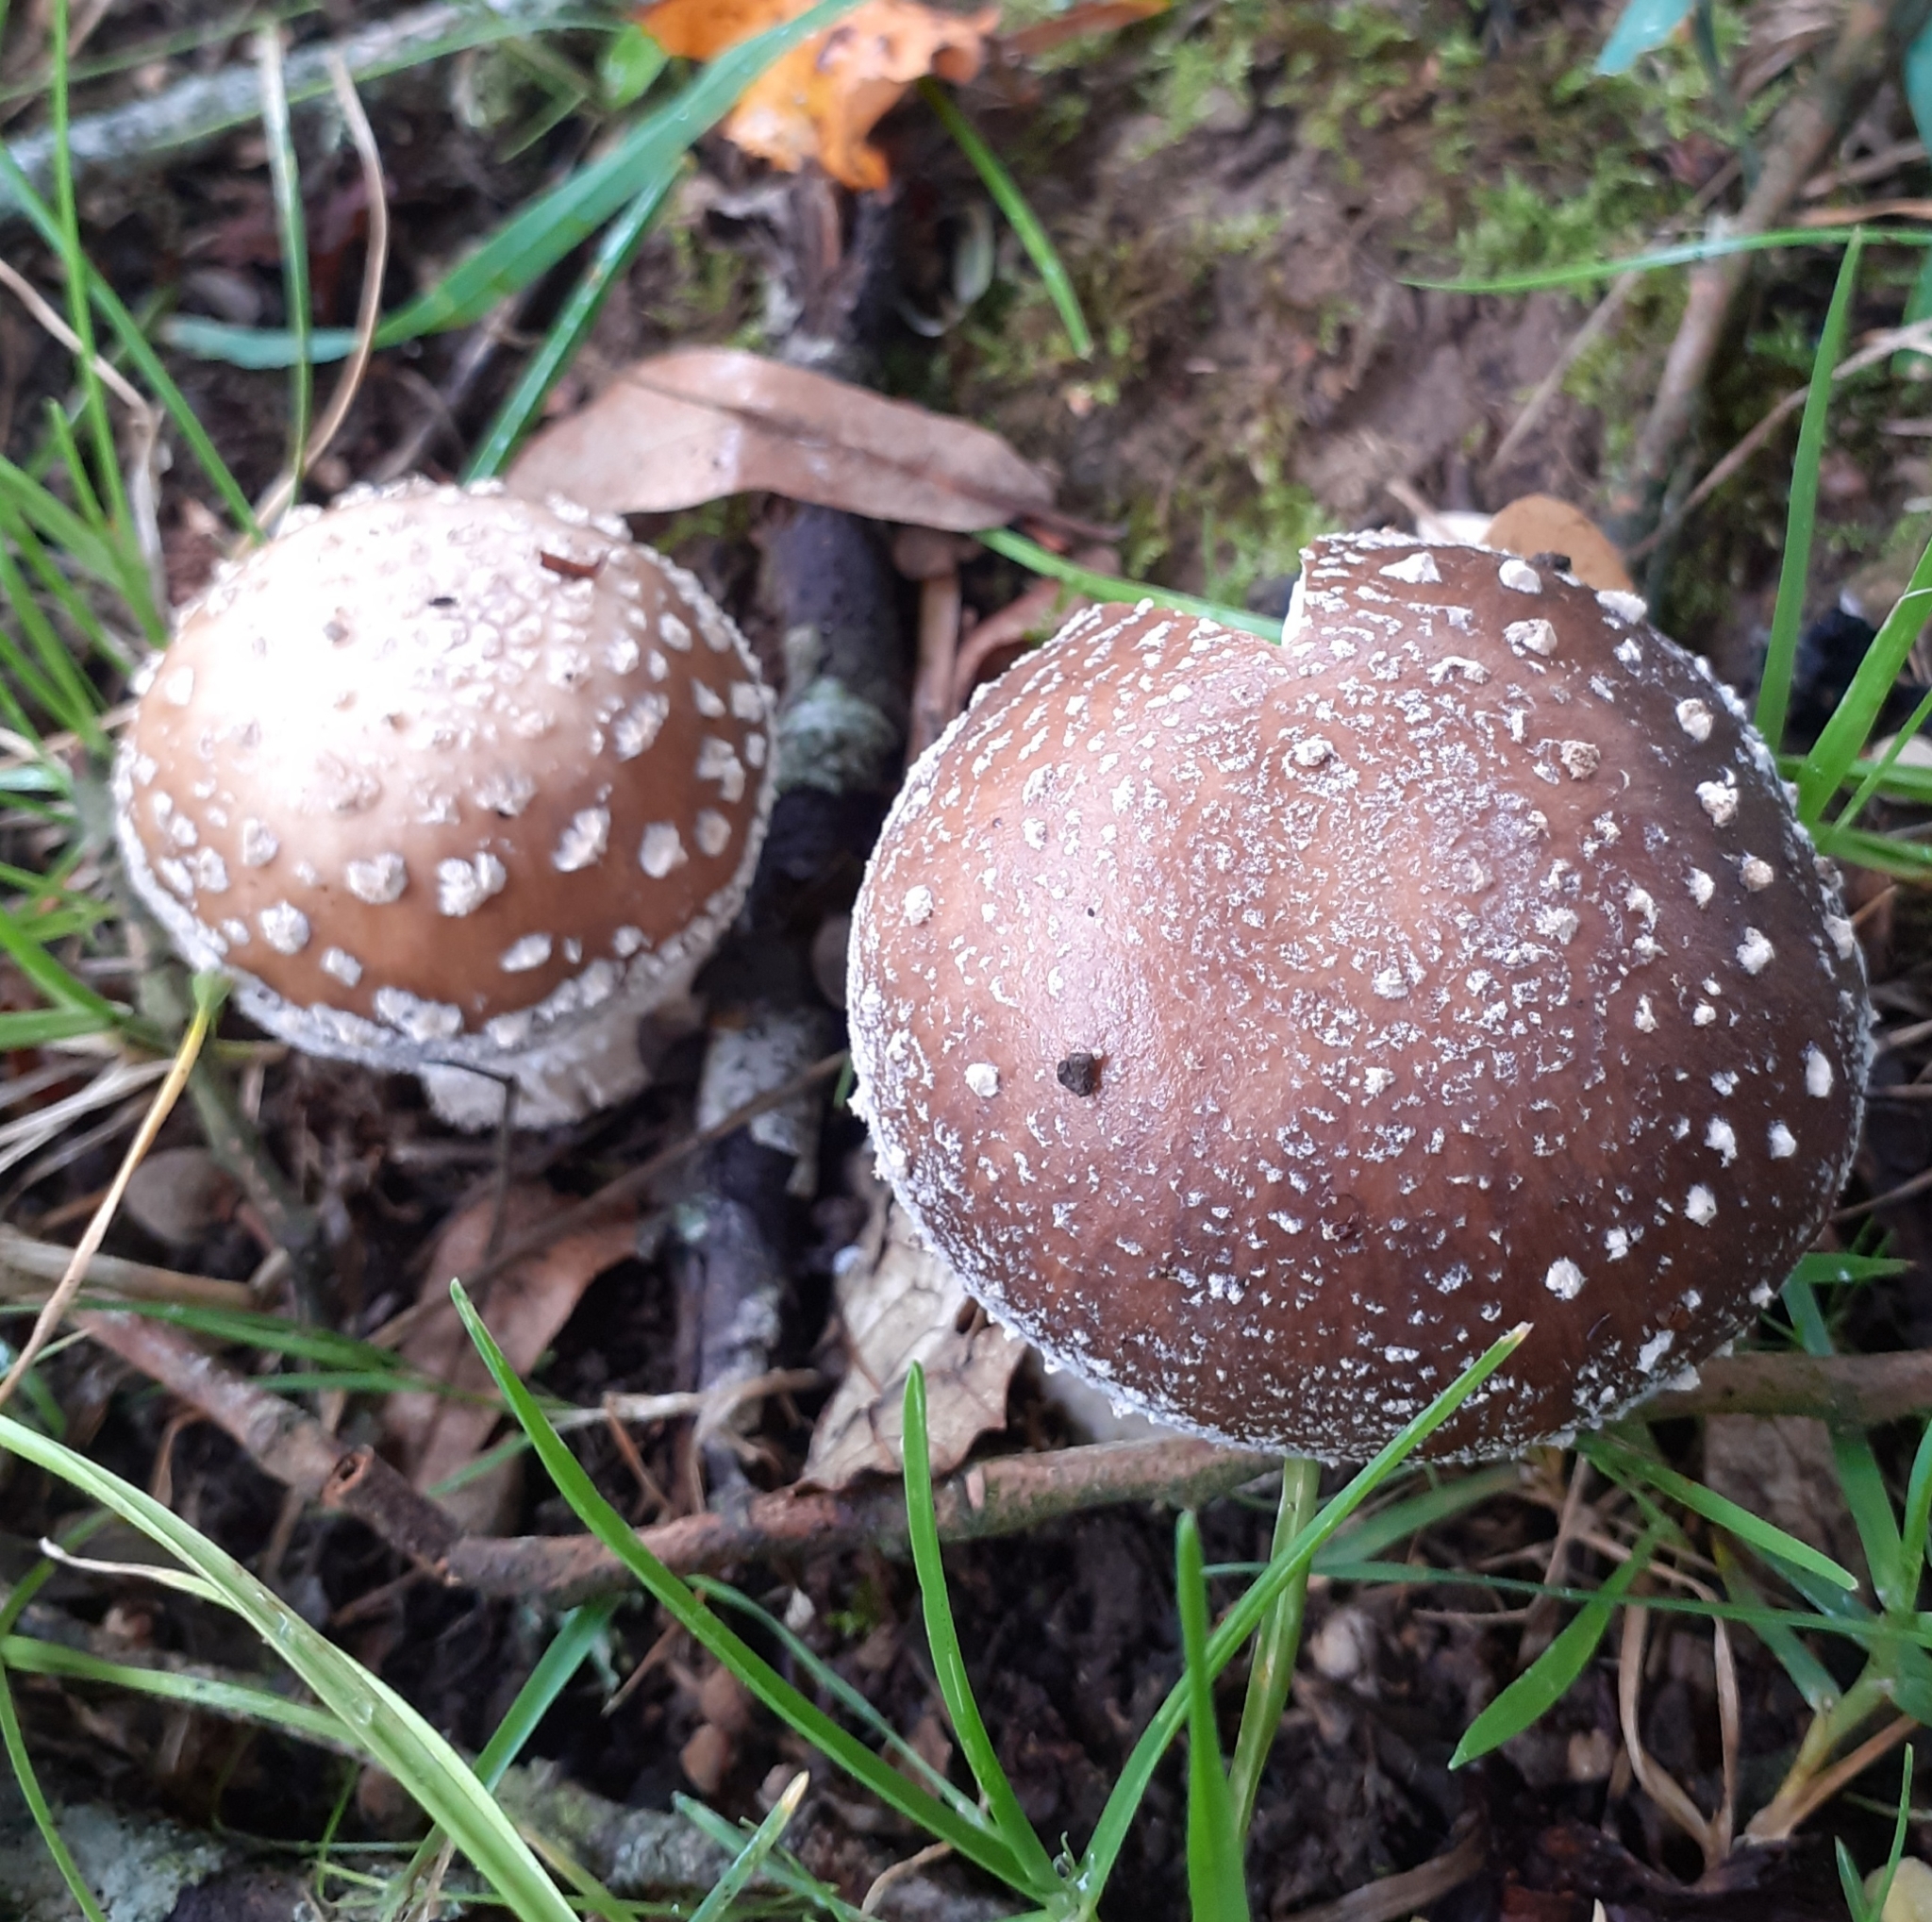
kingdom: Fungi
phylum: Basidiomycota
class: Agaricomycetes
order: Agaricales
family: Amanitaceae
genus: Amanita
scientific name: Amanita pantherina
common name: Panthercap
